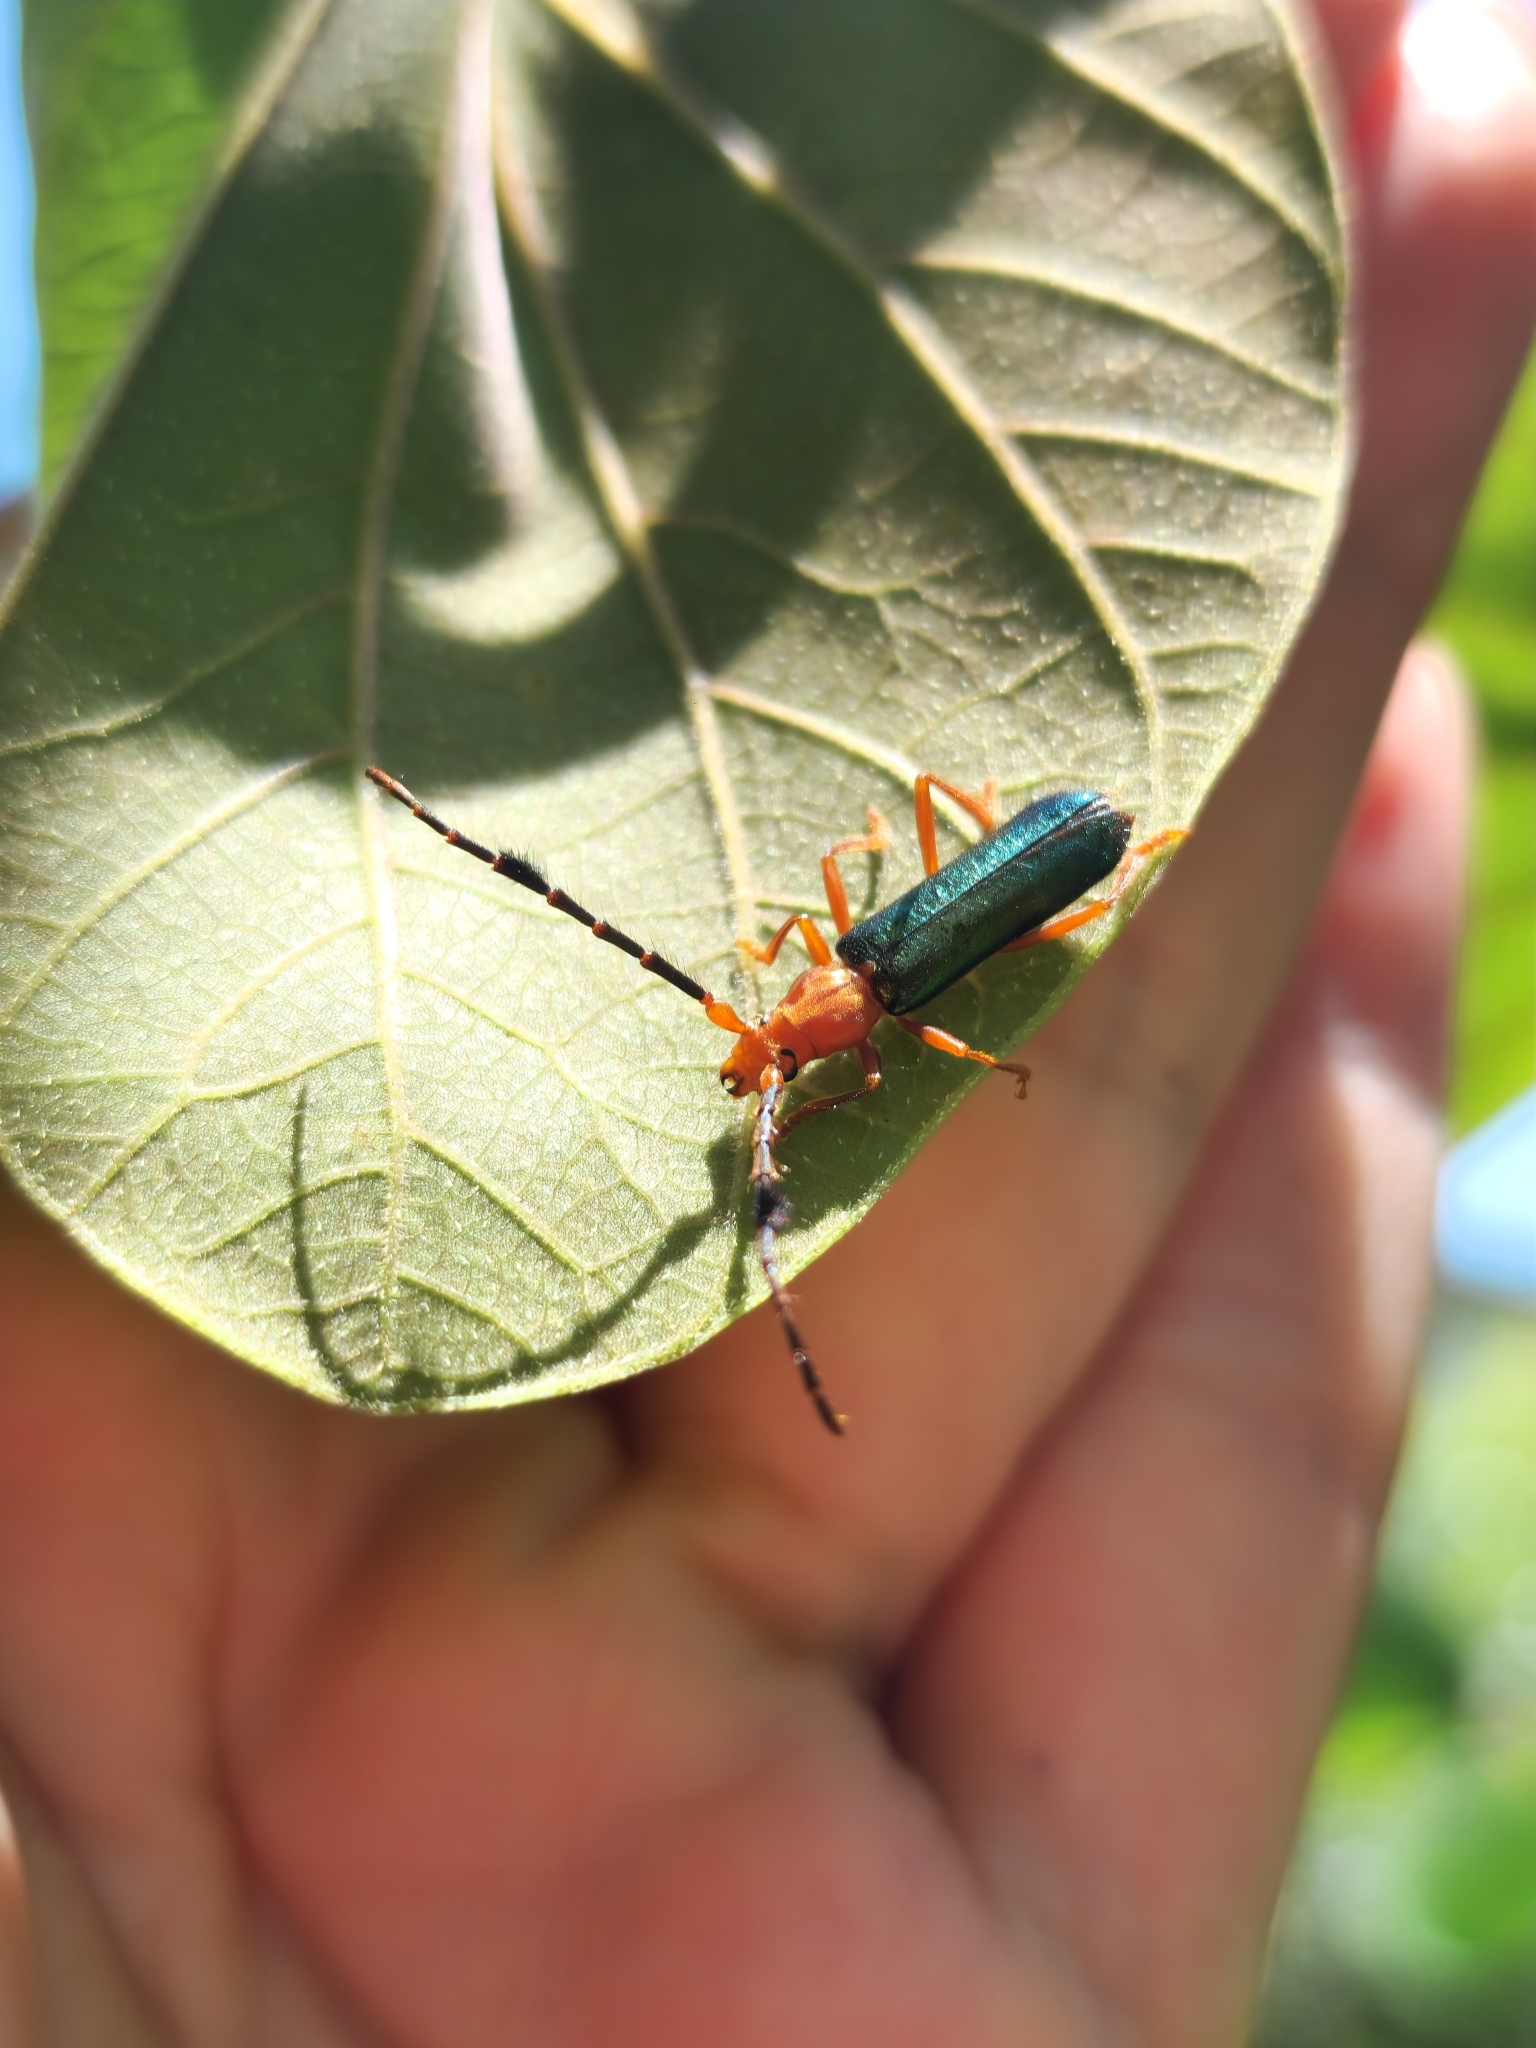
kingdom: Animalia
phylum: Arthropoda
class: Insecta
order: Coleoptera
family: Cerambycidae
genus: Compsocerus
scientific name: Compsocerus parviscopus
